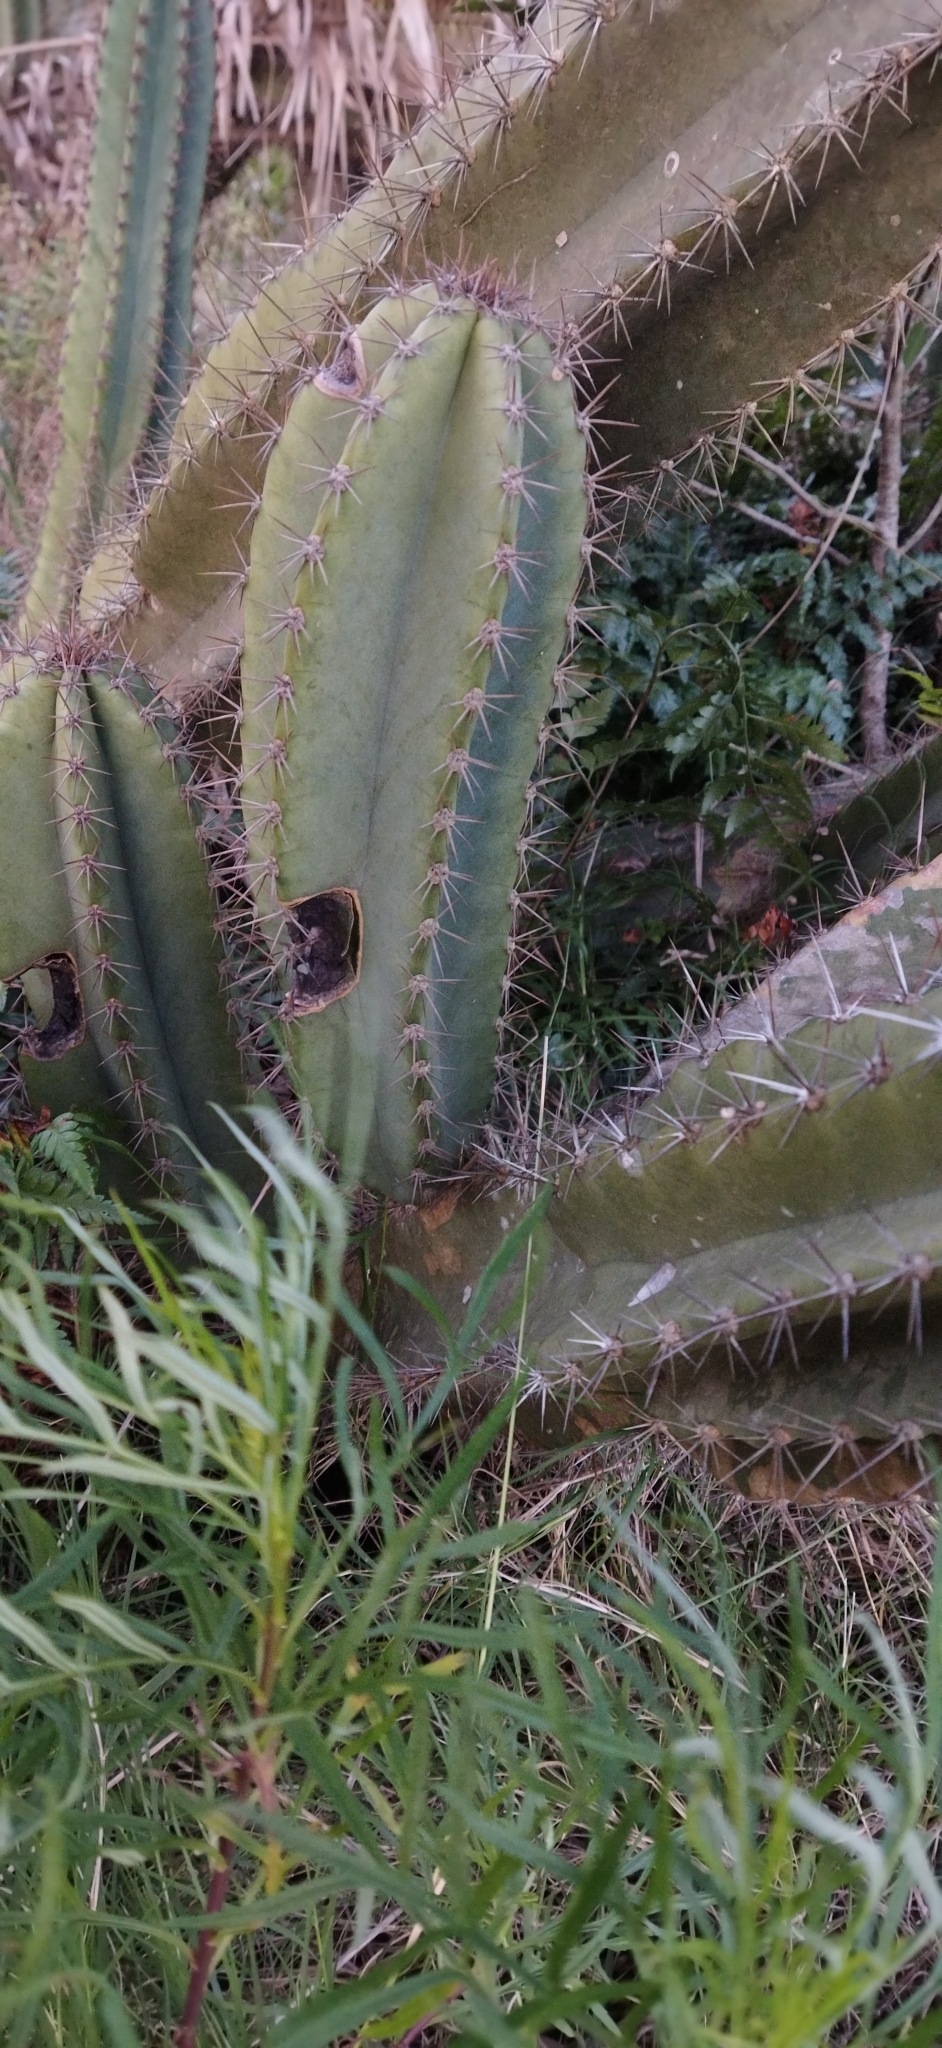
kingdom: Plantae
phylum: Tracheophyta
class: Magnoliopsida
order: Caryophyllales
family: Cactaceae
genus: Cereus
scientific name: Cereus hildmannianus
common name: Hedge cactus
